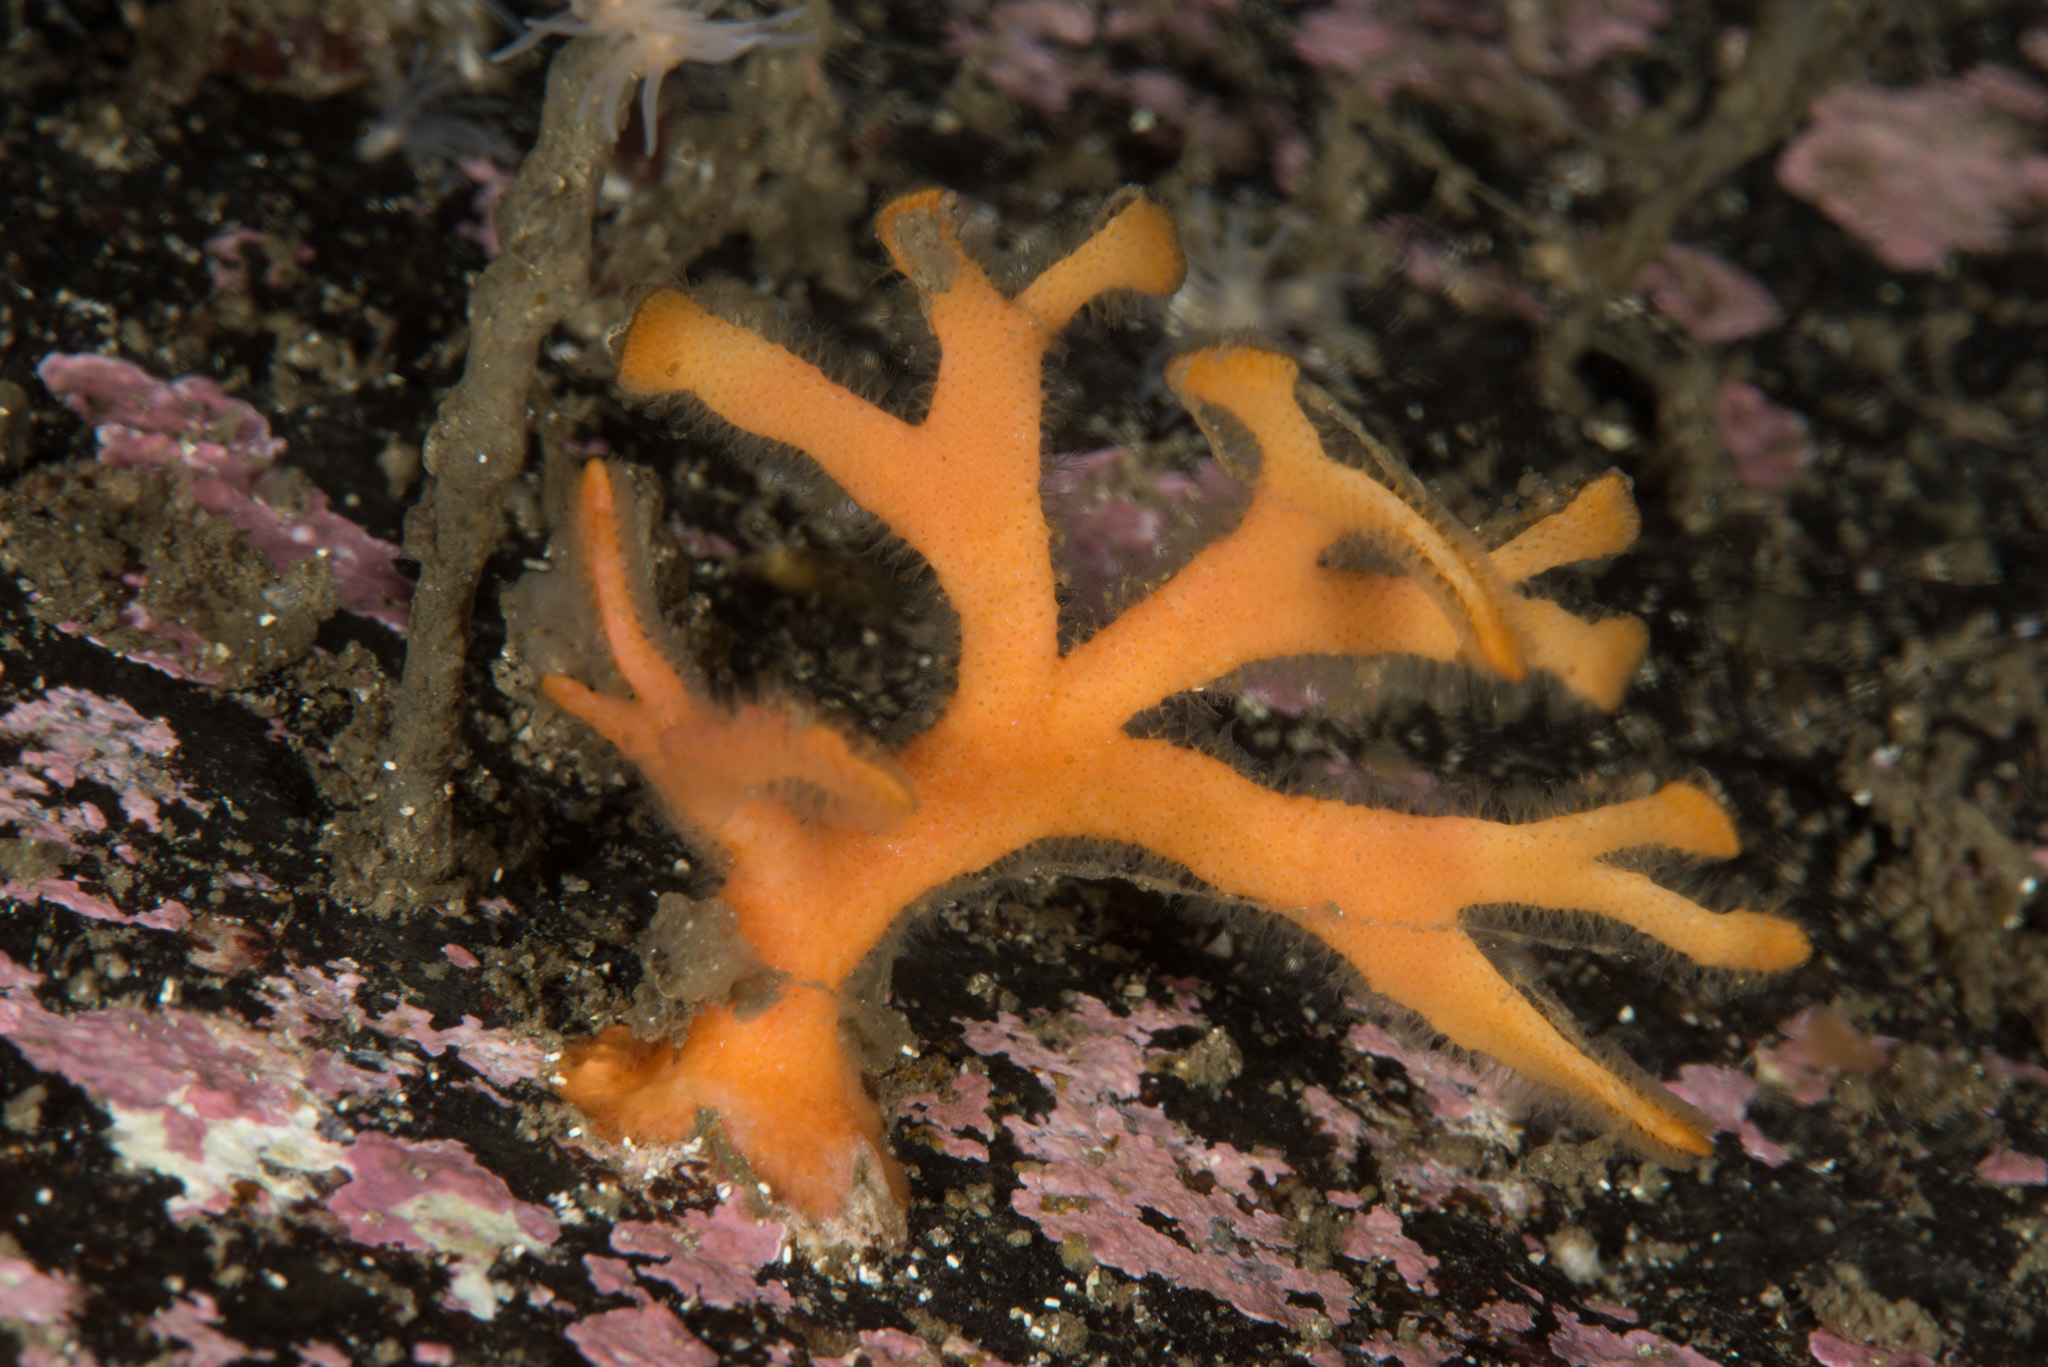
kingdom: Animalia
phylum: Bryozoa
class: Gymnolaemata
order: Cheilostomatida
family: Bryocryptellidae
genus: Porella
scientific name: Porella compressa
